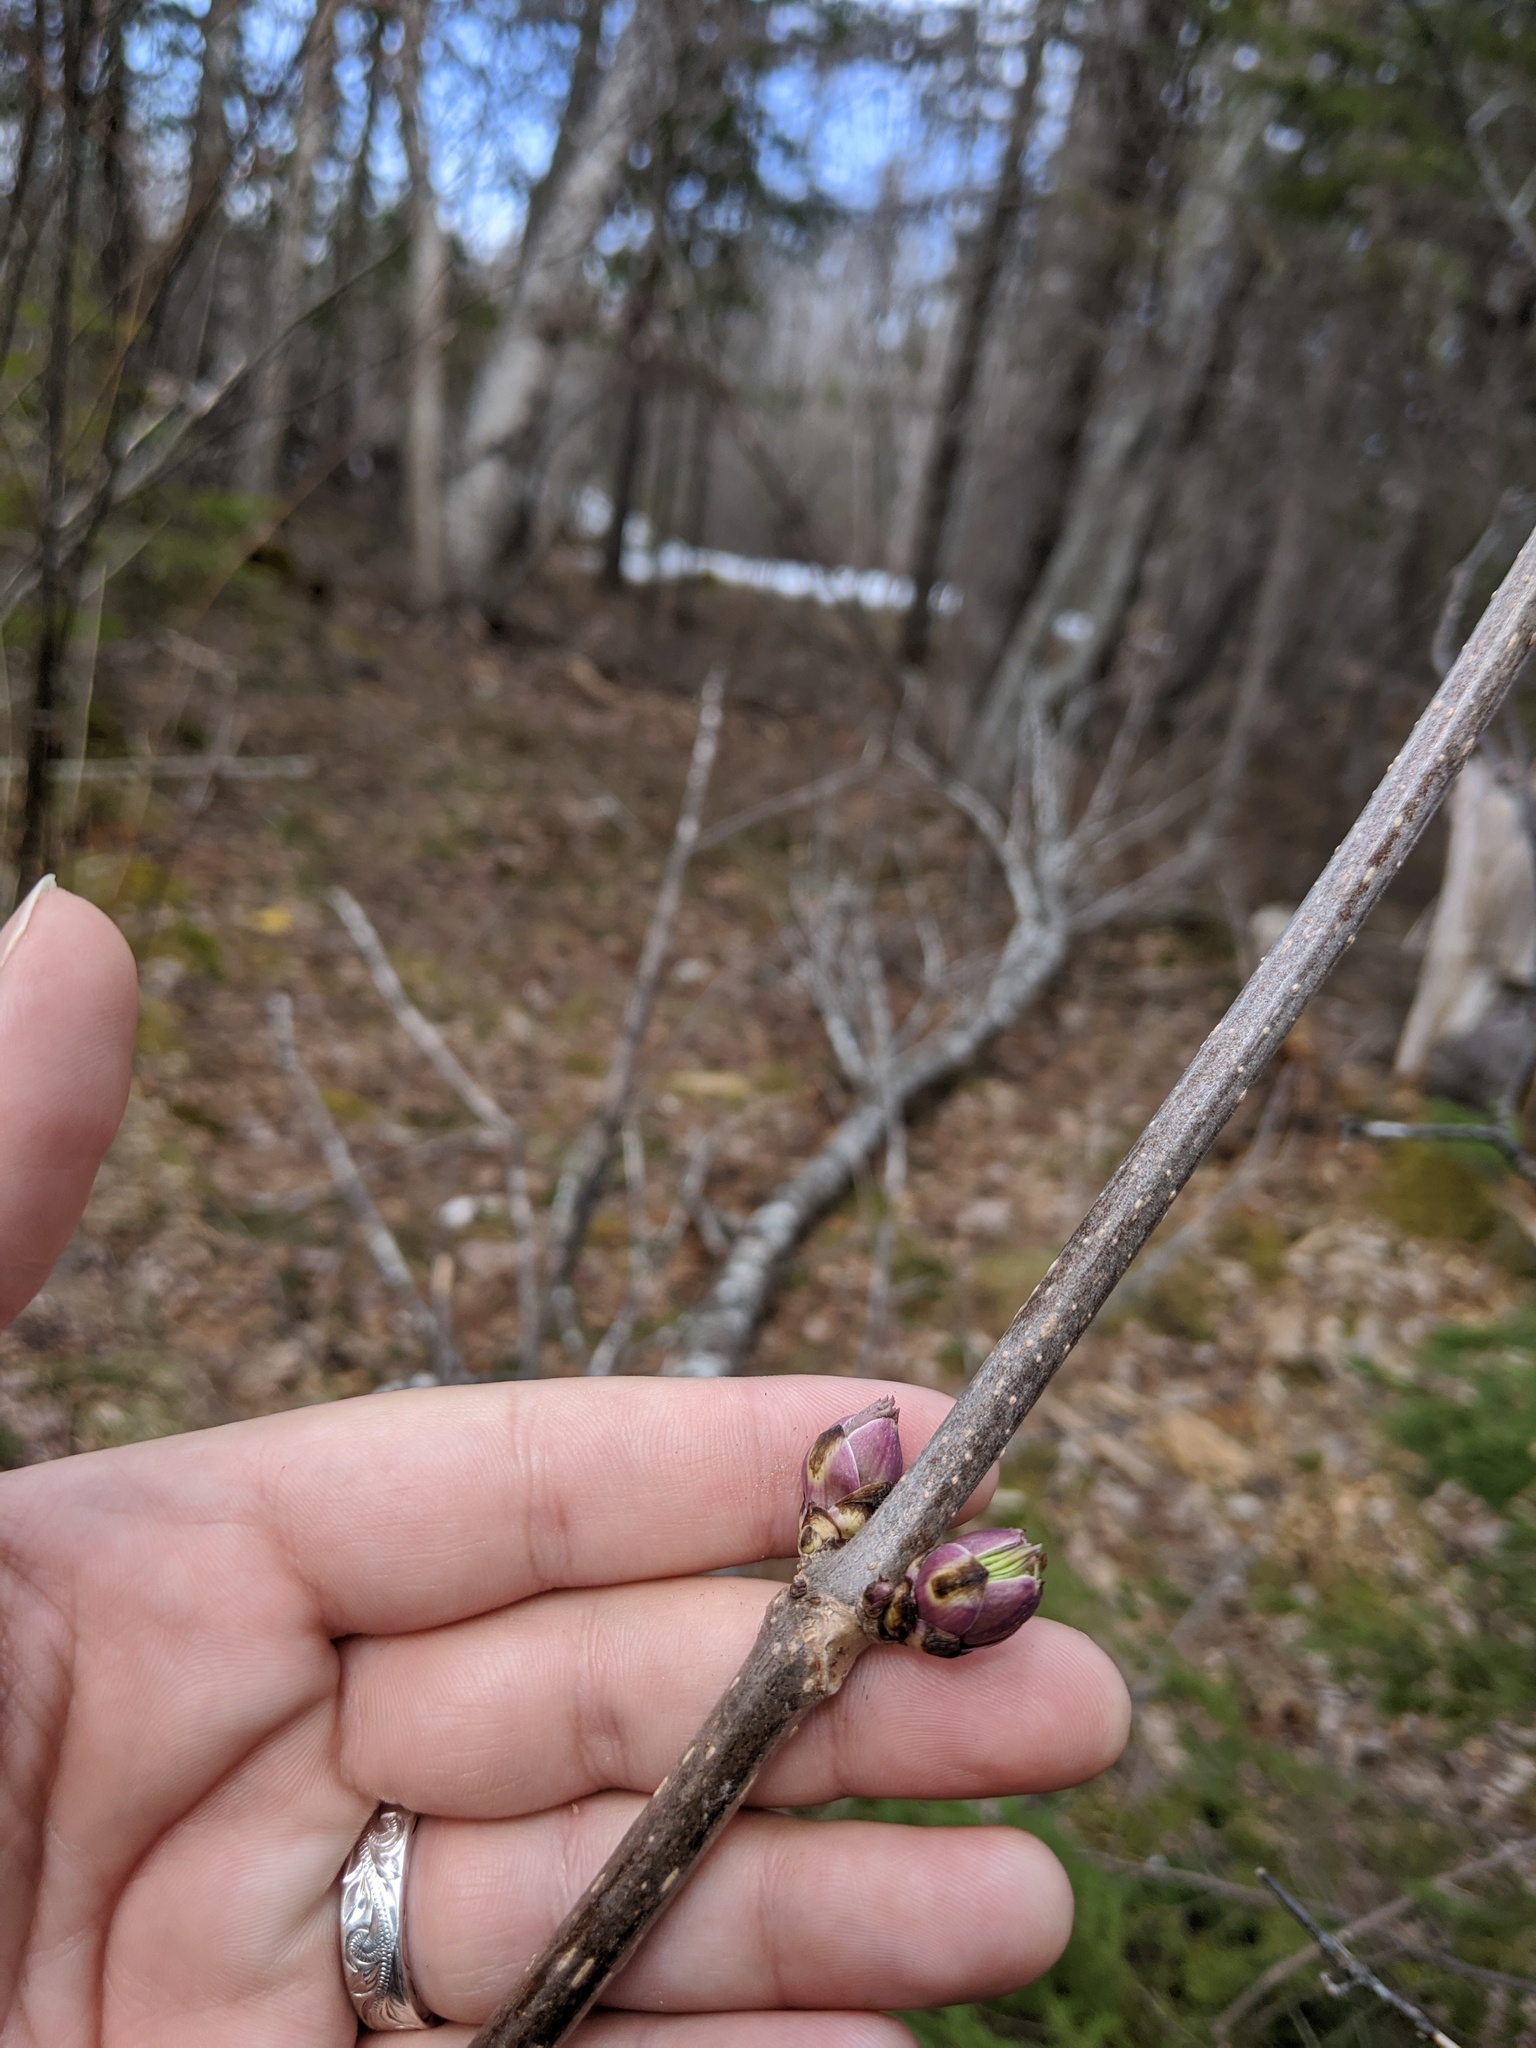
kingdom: Plantae
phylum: Tracheophyta
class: Magnoliopsida
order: Dipsacales
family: Viburnaceae
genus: Sambucus
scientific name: Sambucus racemosa
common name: Red-berried elder
